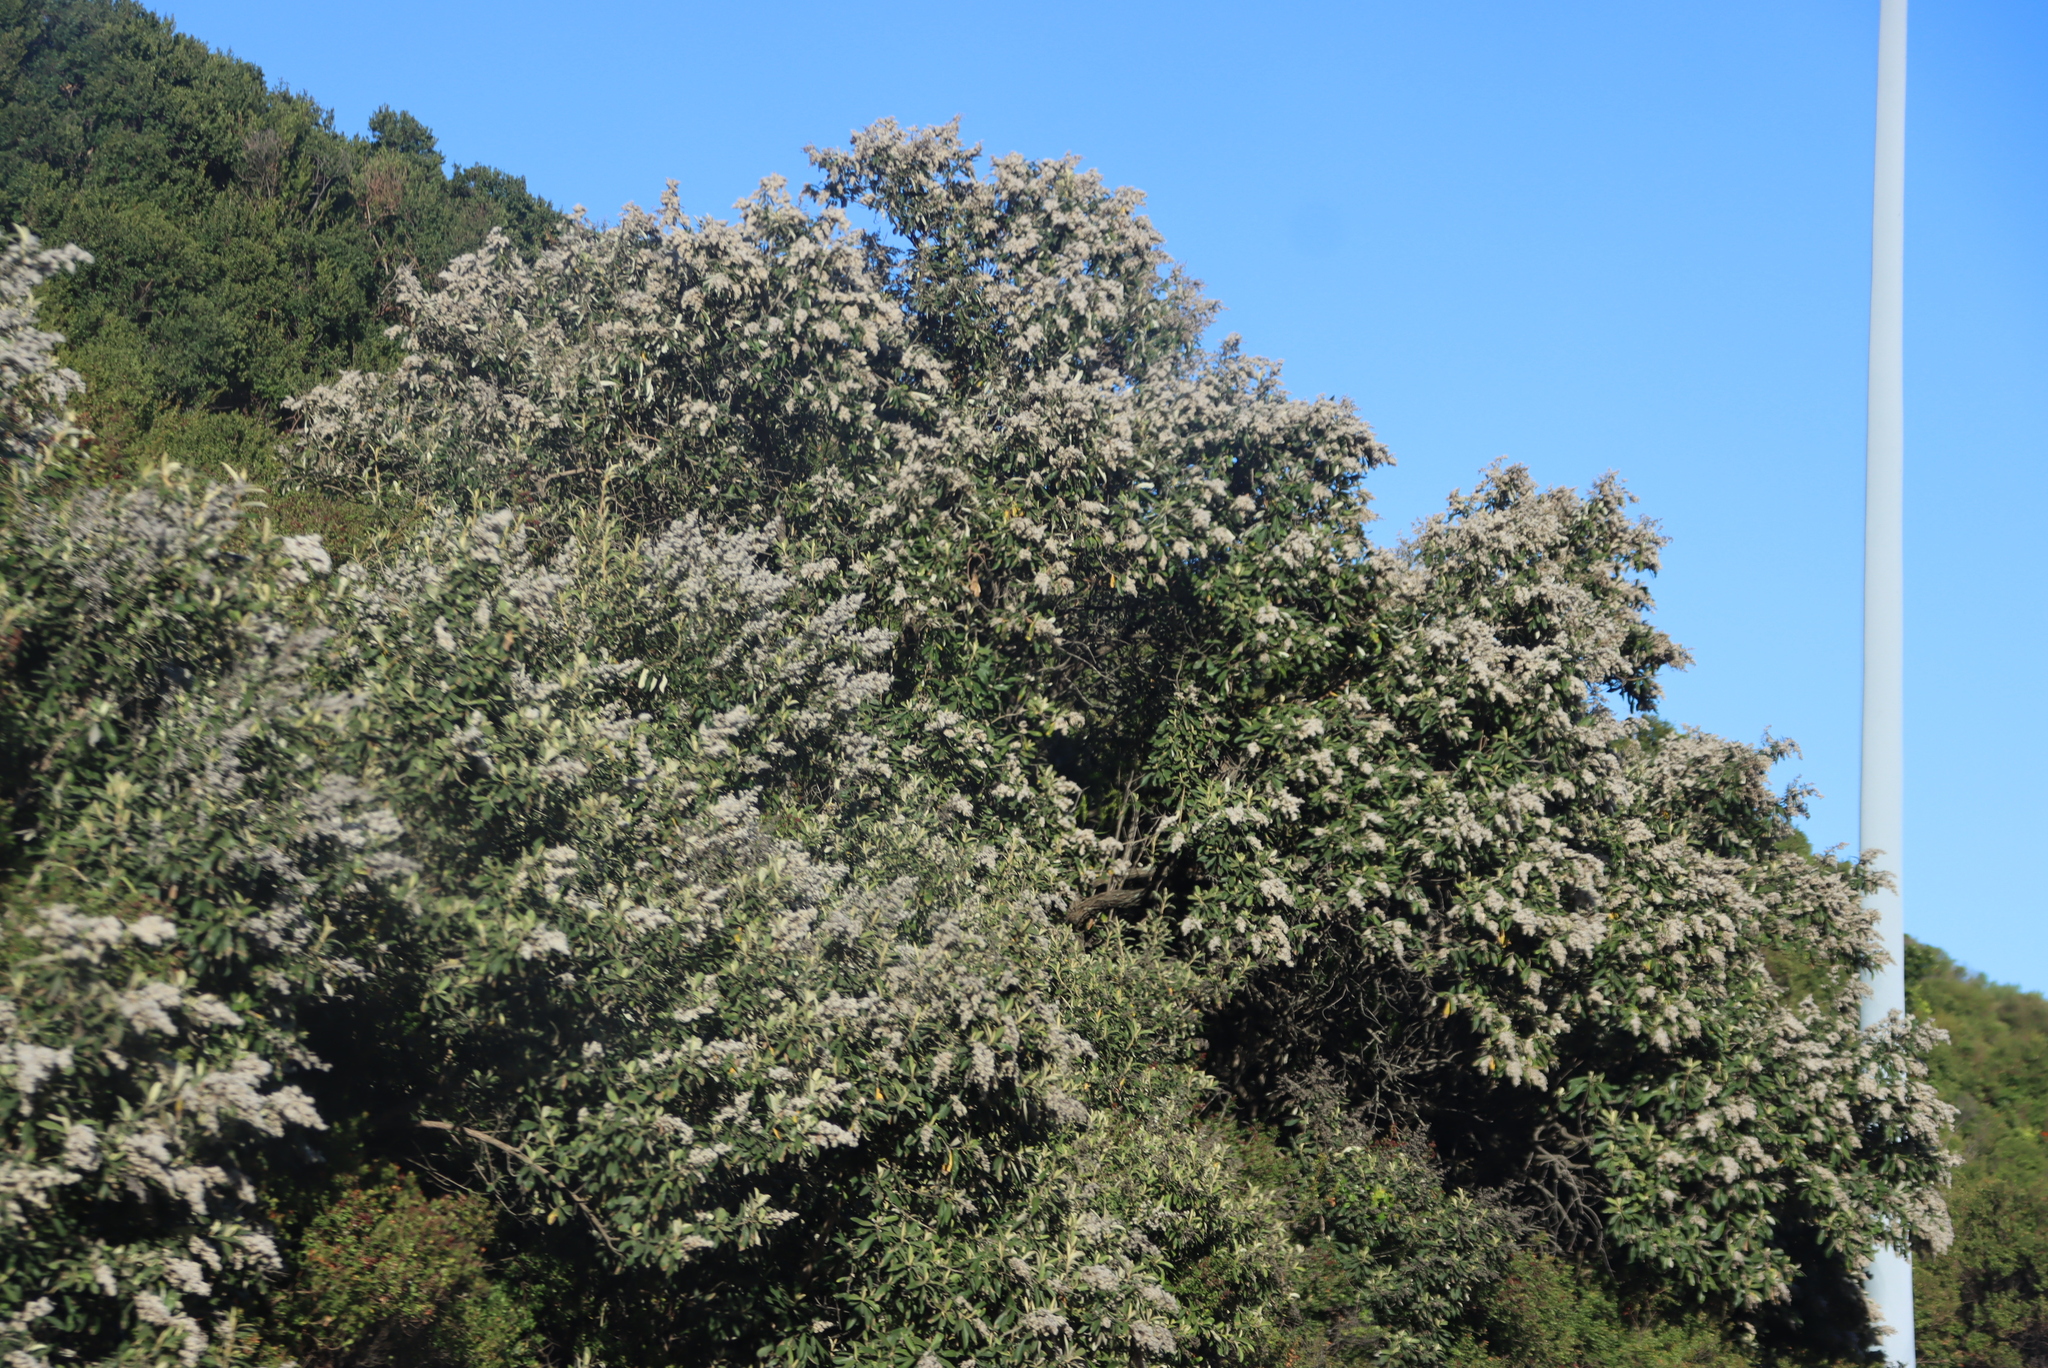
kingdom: Plantae
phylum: Tracheophyta
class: Magnoliopsida
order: Asterales
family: Asteraceae
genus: Tarchonanthus
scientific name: Tarchonanthus littoralis
